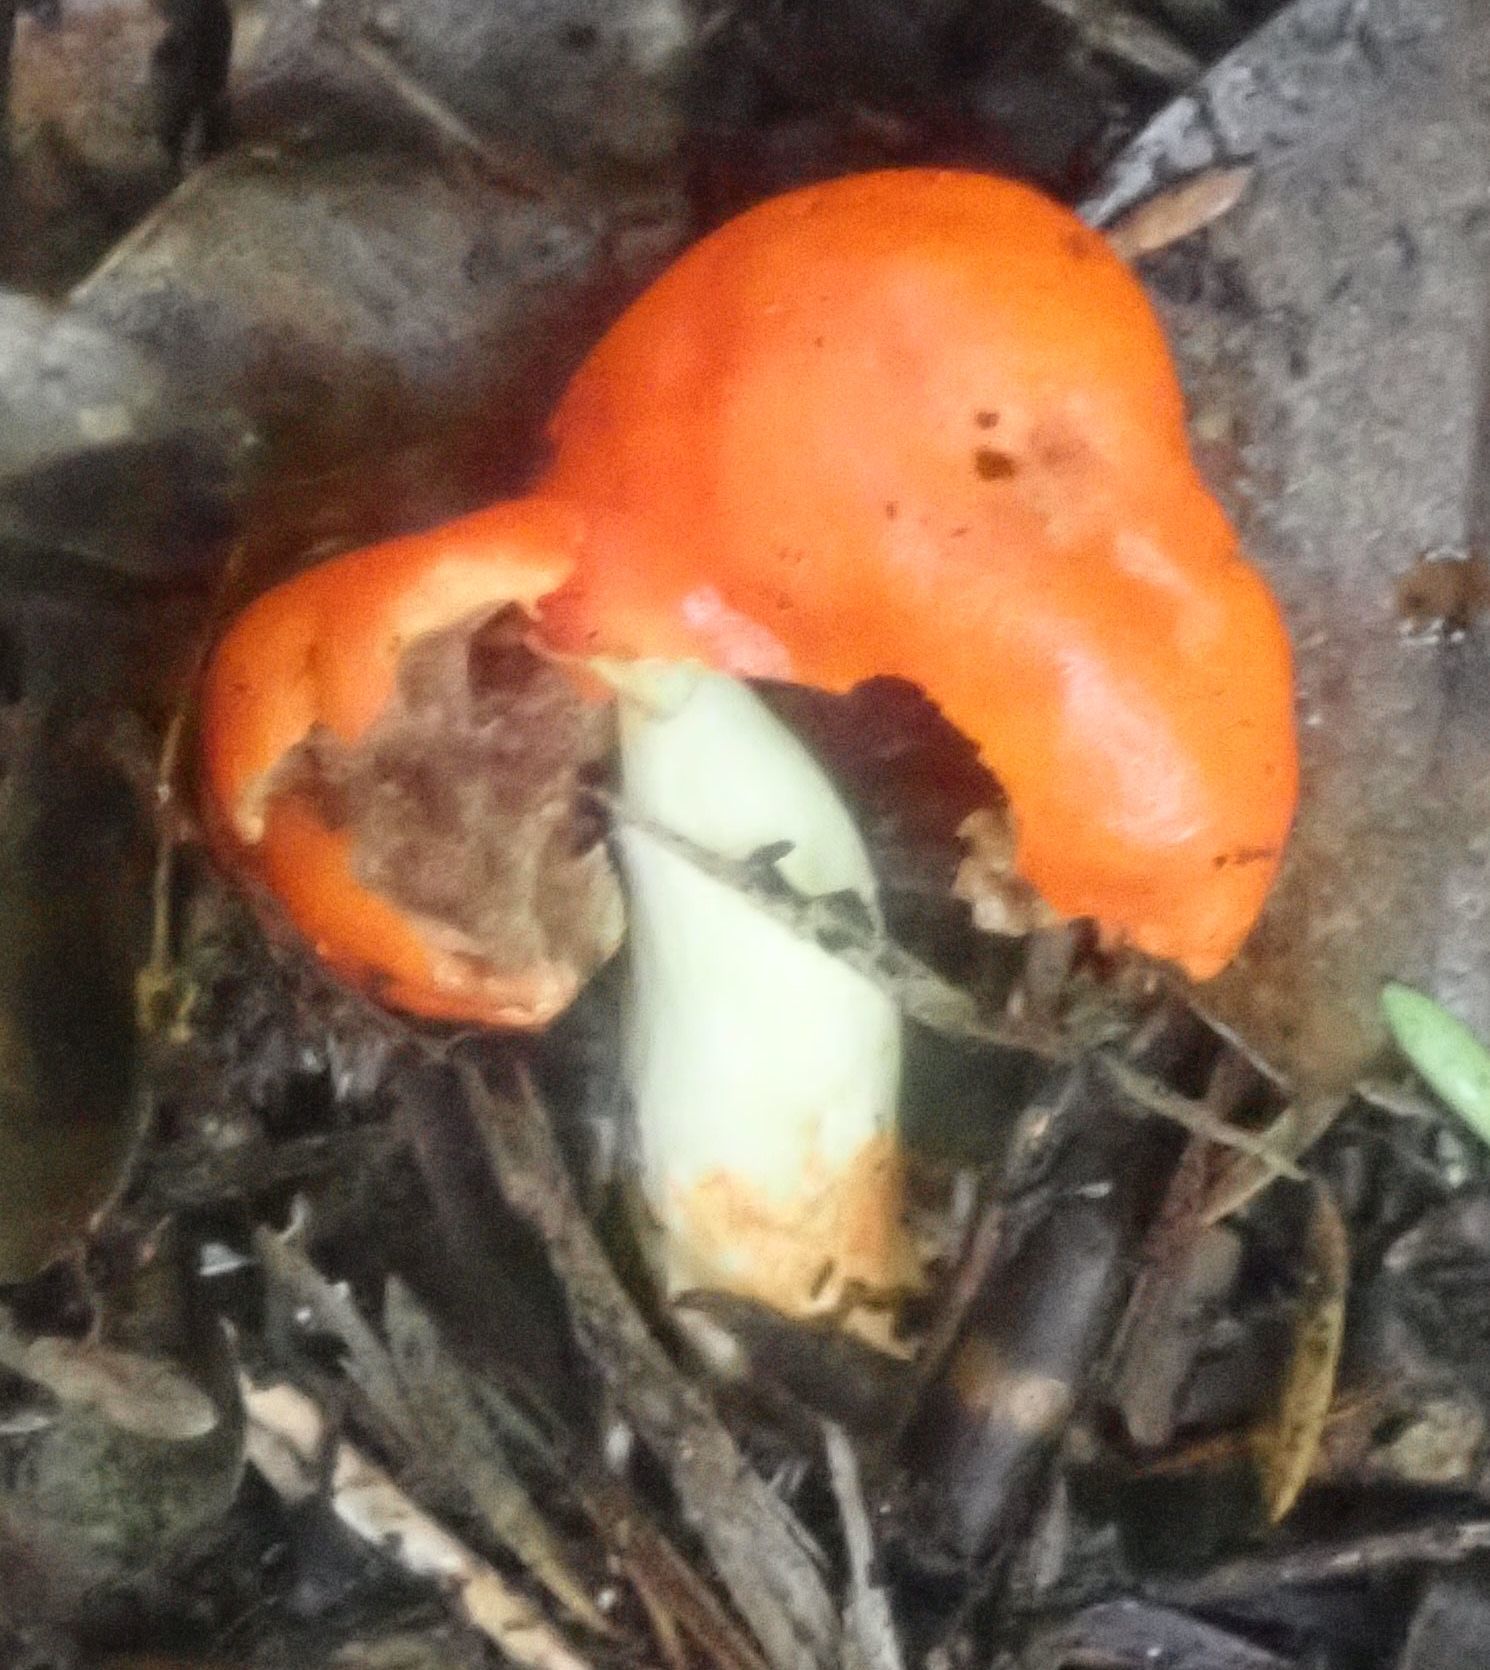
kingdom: Fungi
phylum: Basidiomycota
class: Agaricomycetes
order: Agaricales
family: Strophariaceae
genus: Leratiomyces
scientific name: Leratiomyces erythrocephalus
